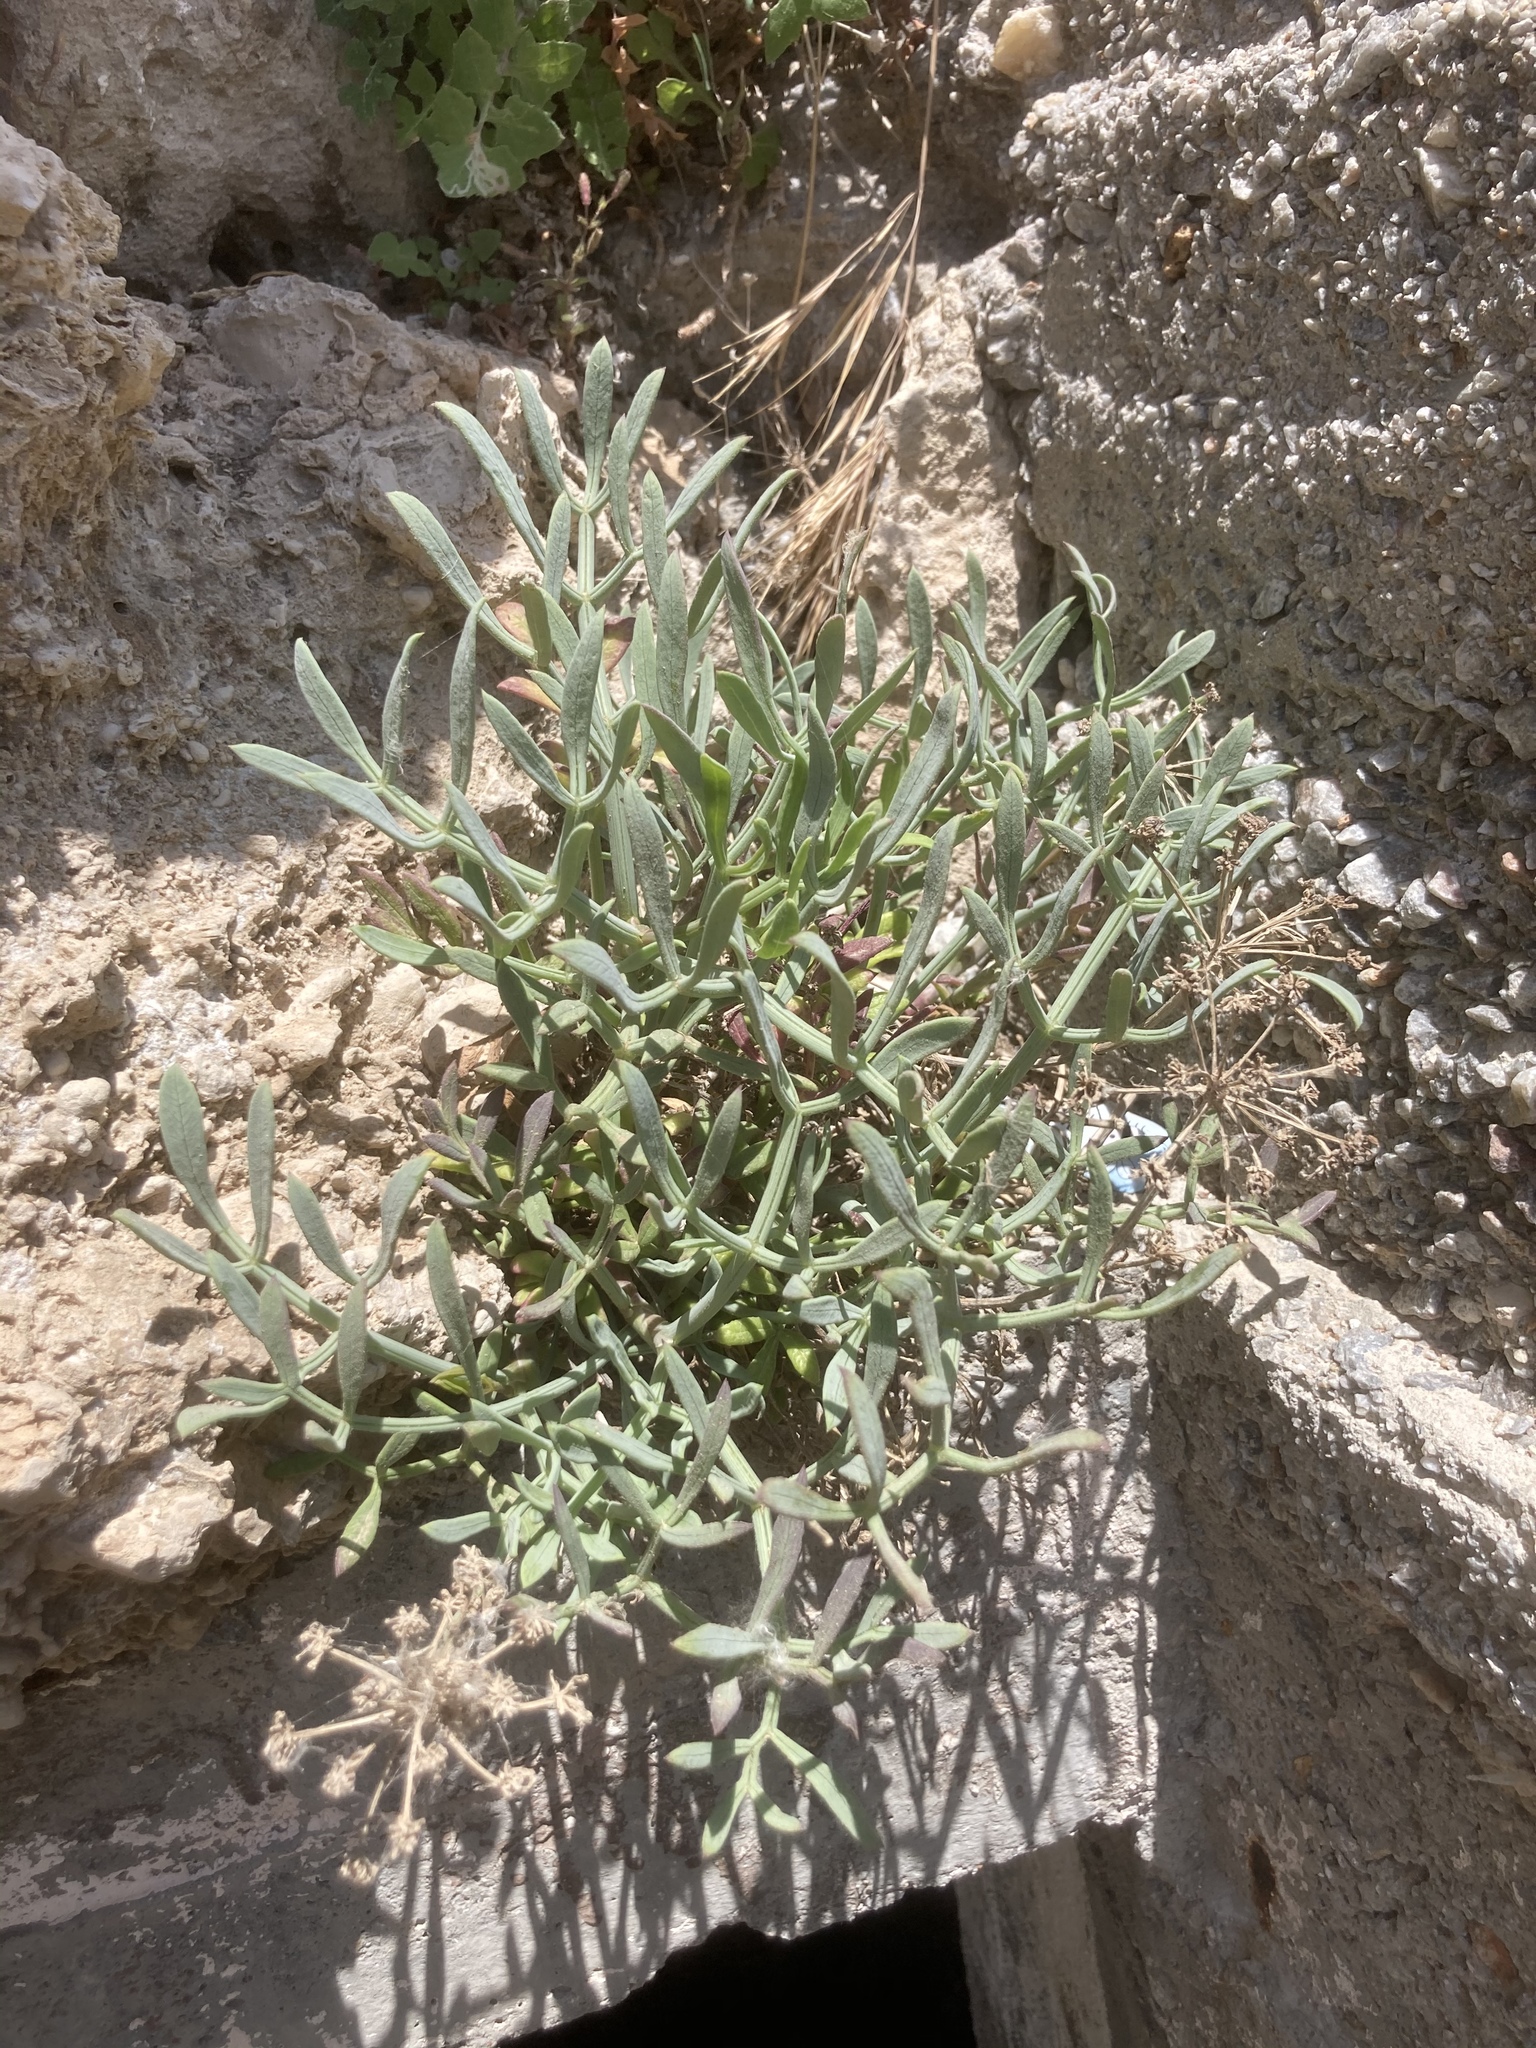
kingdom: Plantae
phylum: Tracheophyta
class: Magnoliopsida
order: Apiales
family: Apiaceae
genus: Crithmum
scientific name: Crithmum maritimum
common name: Rock samphire
